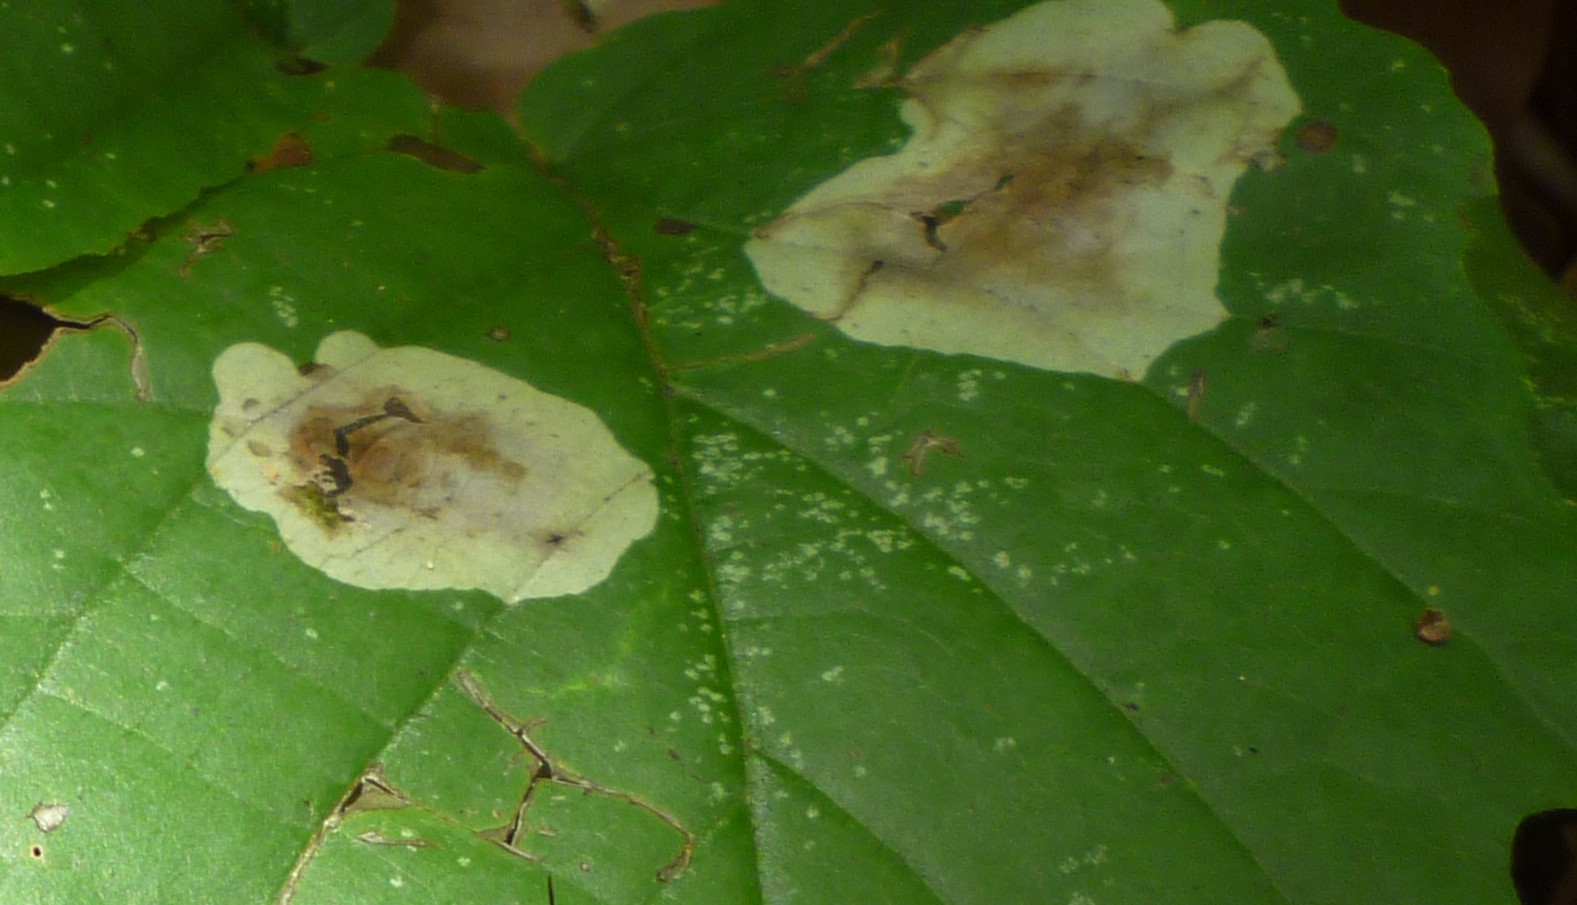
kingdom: Animalia
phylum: Arthropoda
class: Insecta
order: Lepidoptera
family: Gracillariidae
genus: Cameraria
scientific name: Cameraria hamameliella
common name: Witchhazel leafminer
